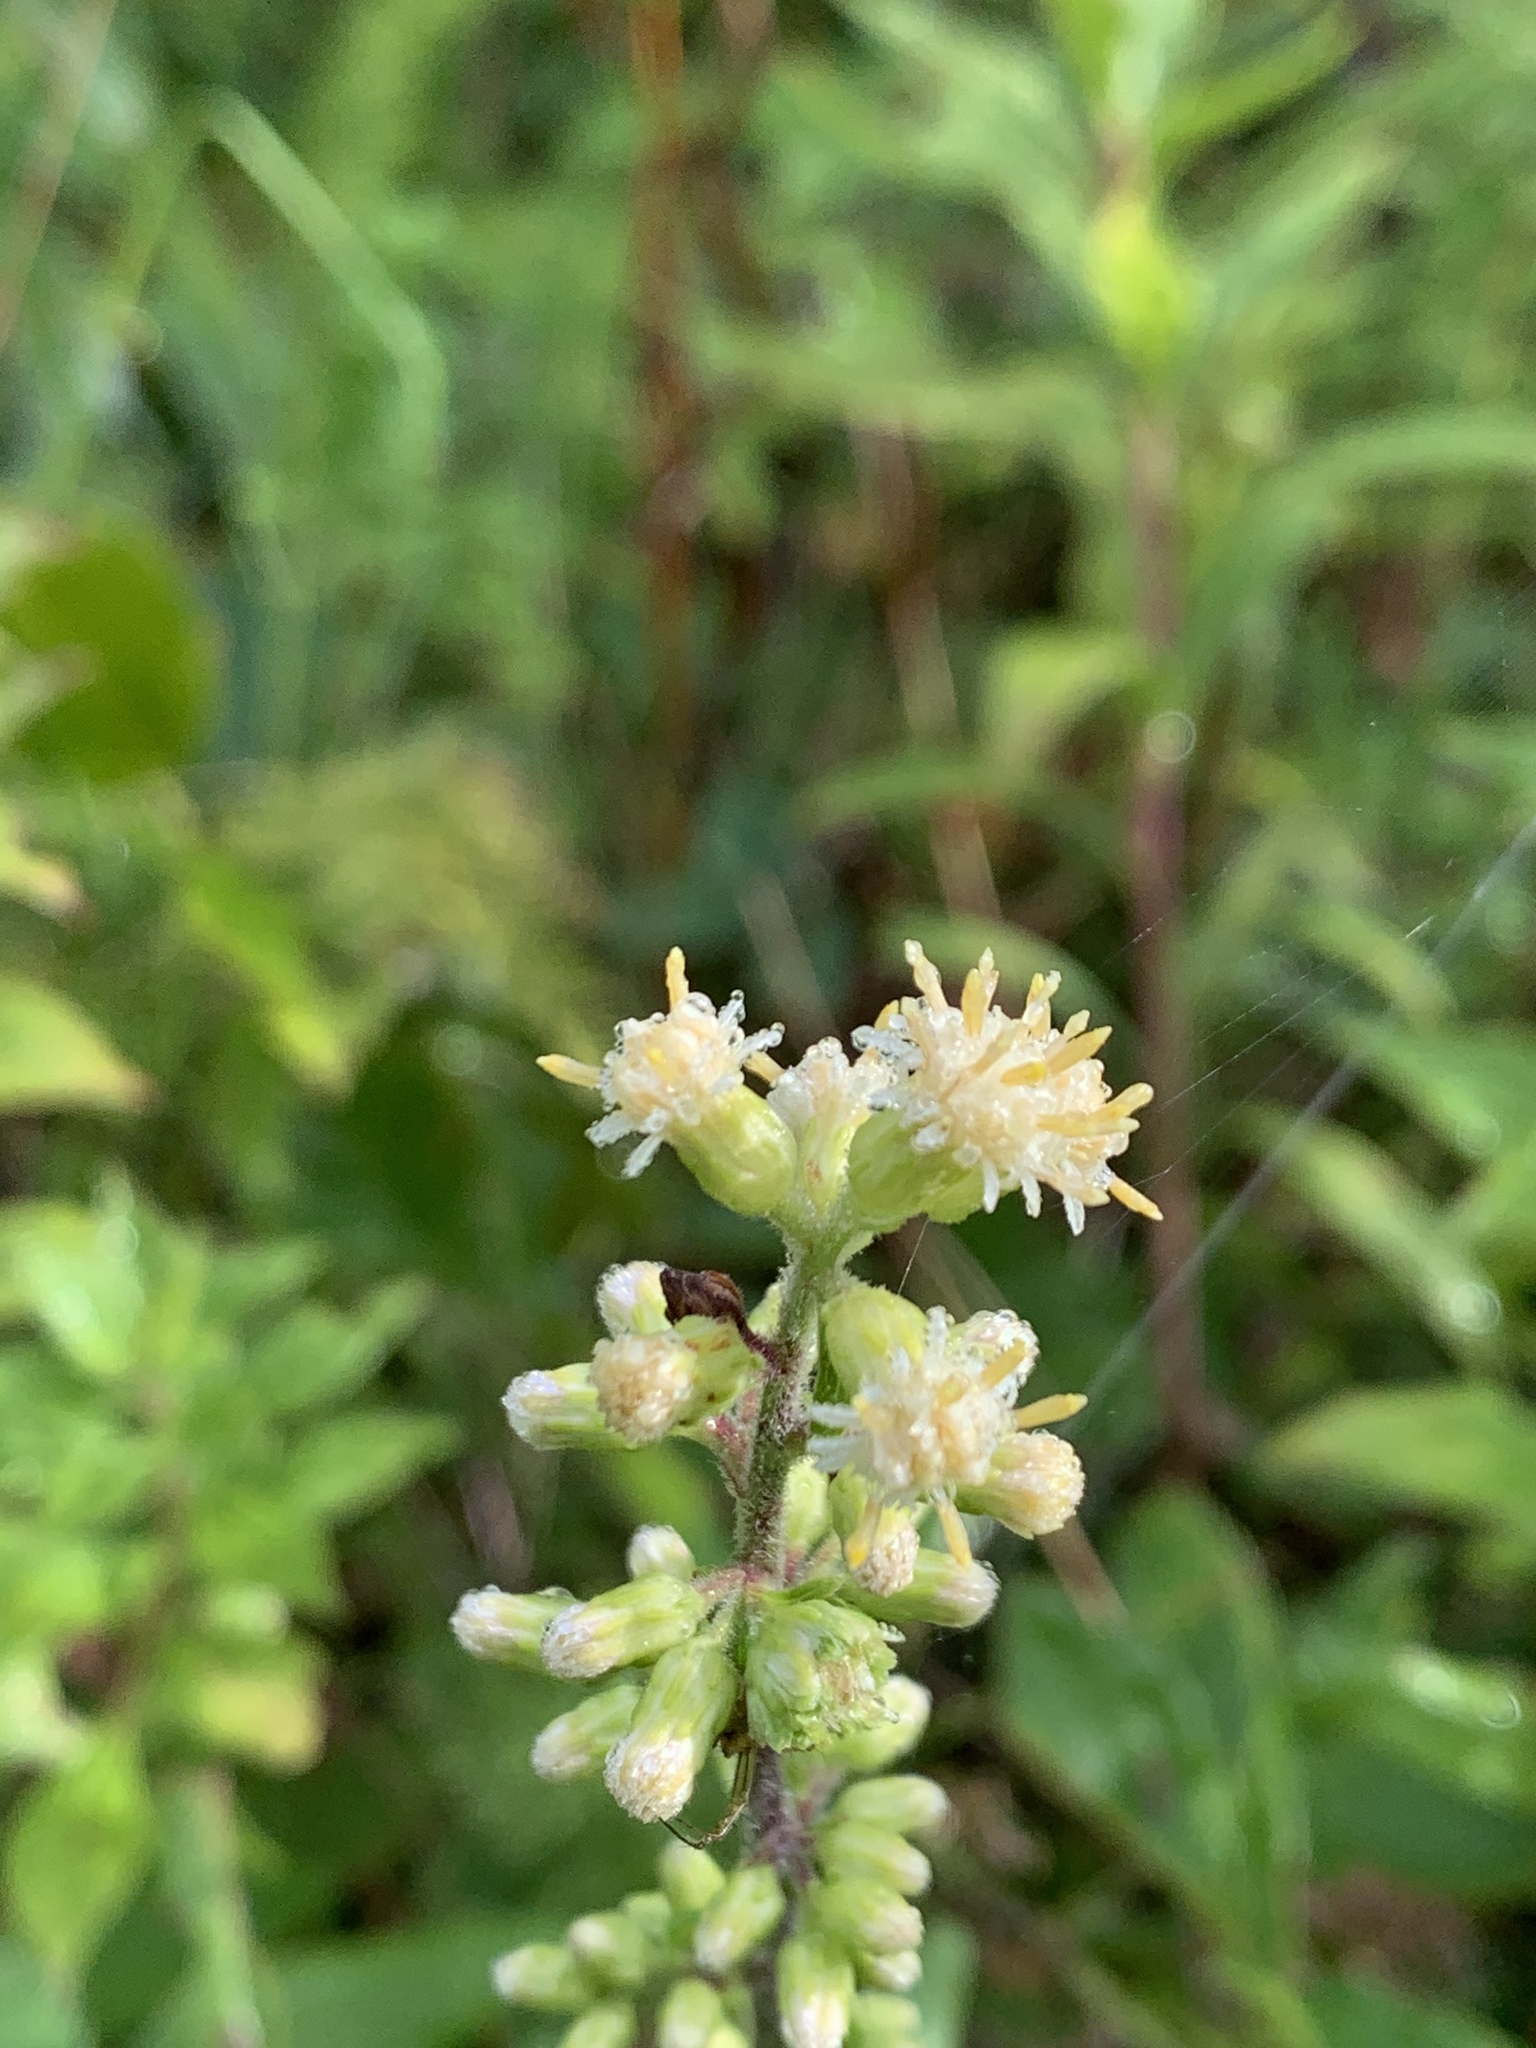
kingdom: Plantae
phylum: Tracheophyta
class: Magnoliopsida
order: Asterales
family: Asteraceae
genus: Solidago
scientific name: Solidago bicolor
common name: Silverrod
